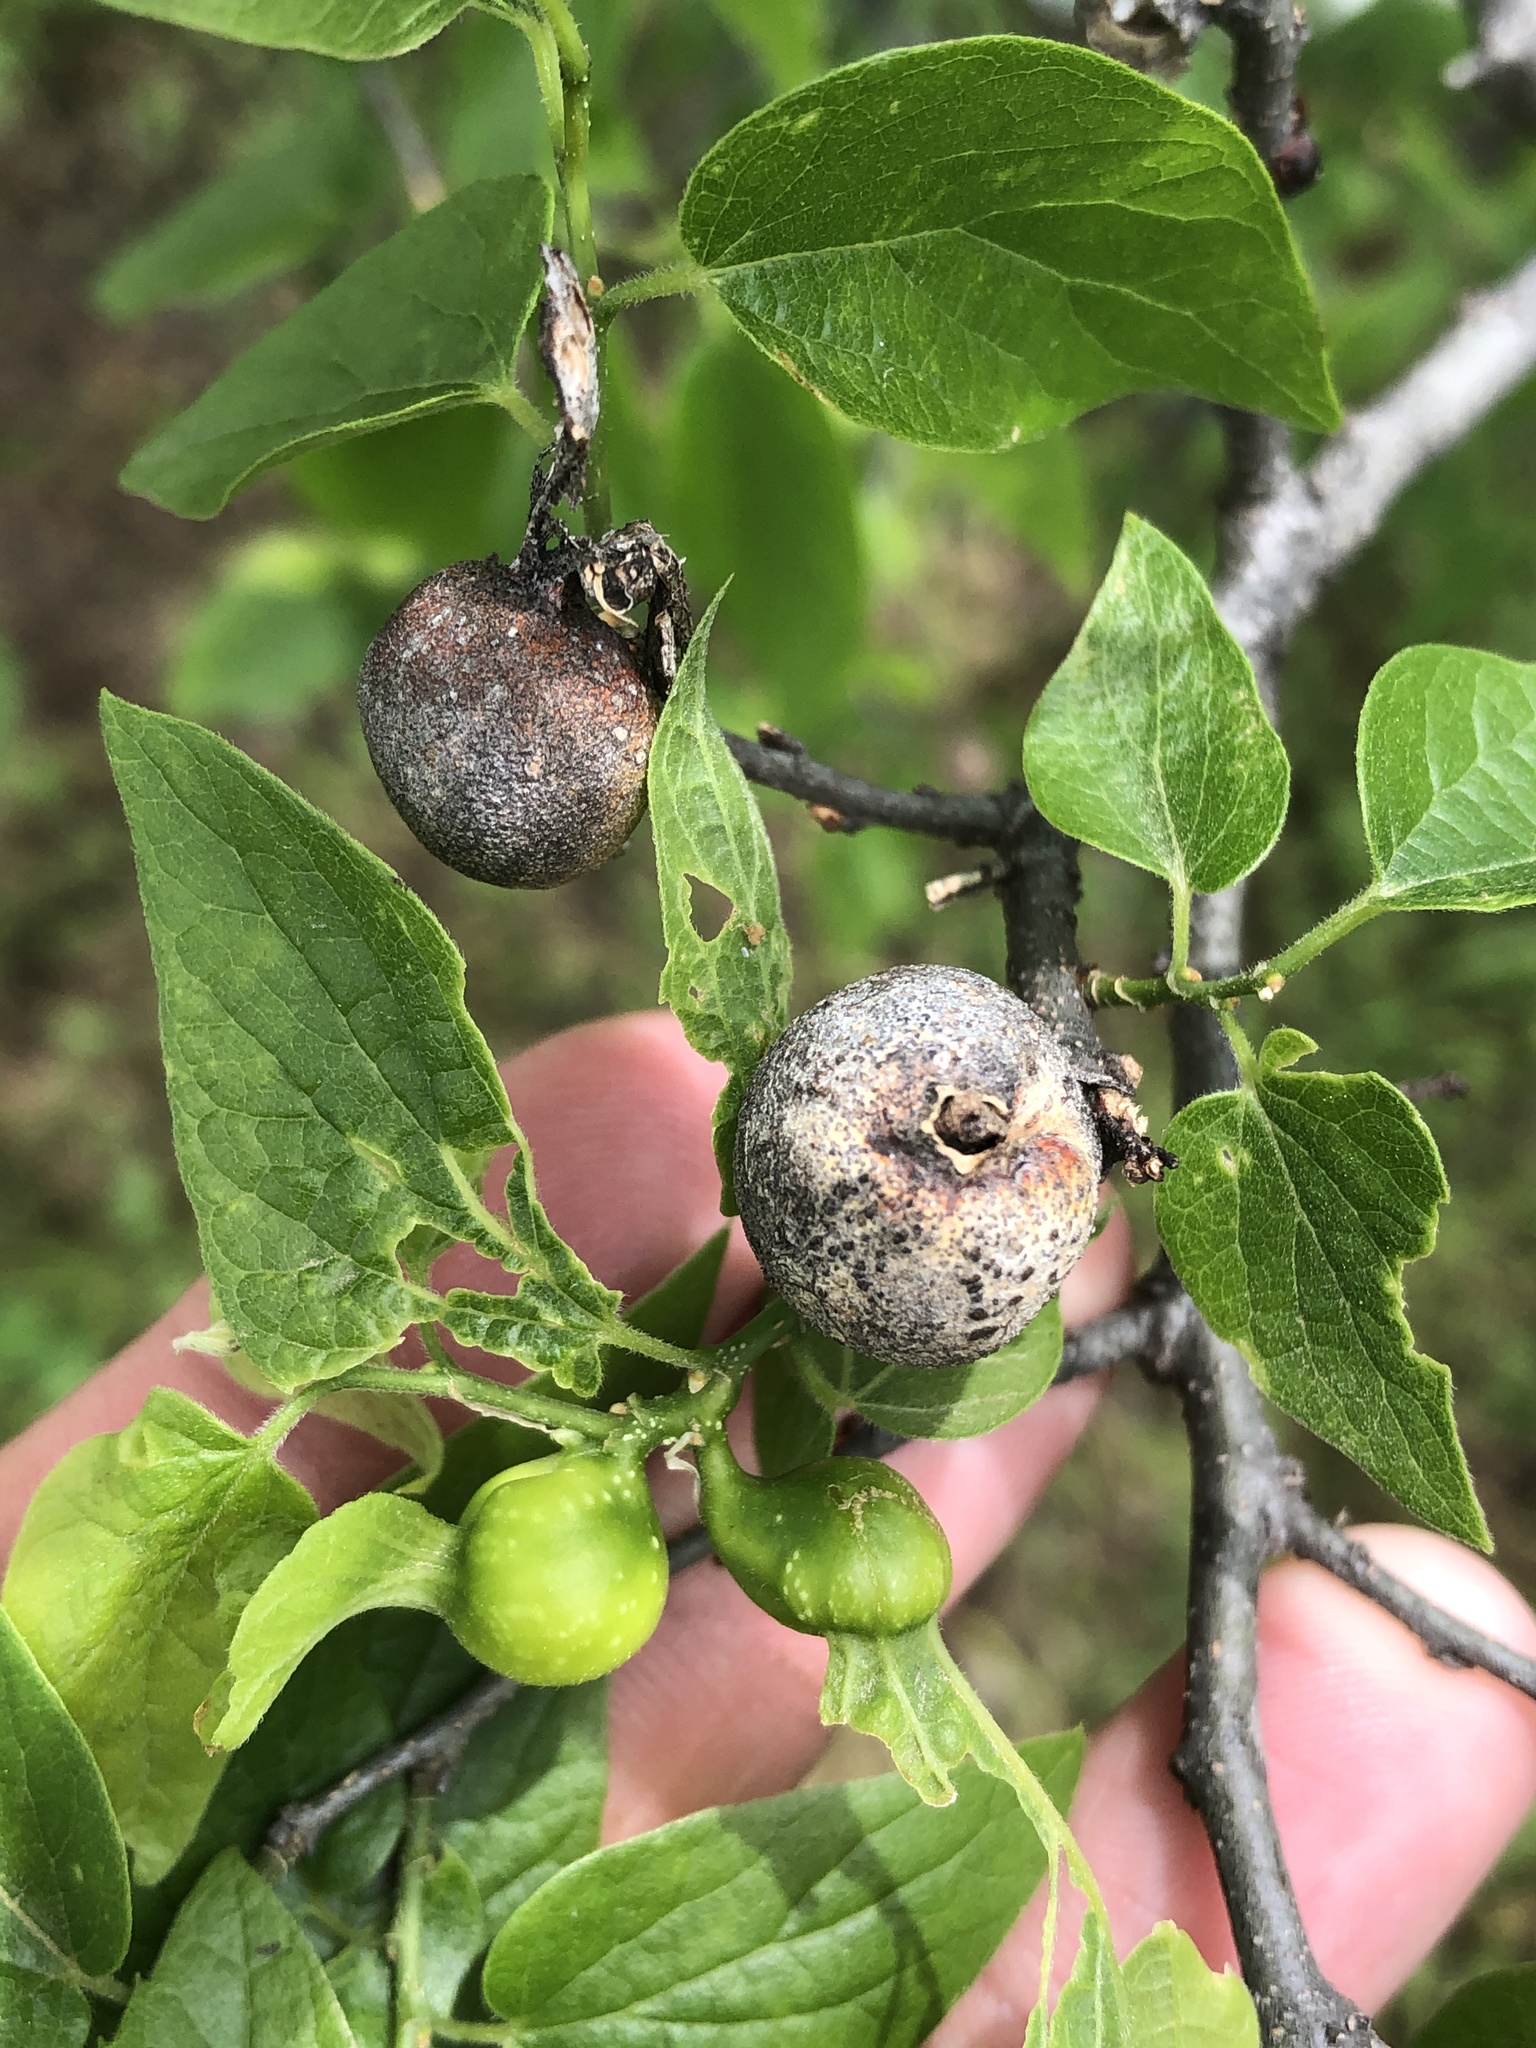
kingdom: Animalia
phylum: Arthropoda
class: Insecta
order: Hemiptera
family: Aphalaridae
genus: Pachypsylla
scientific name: Pachypsylla venusta
